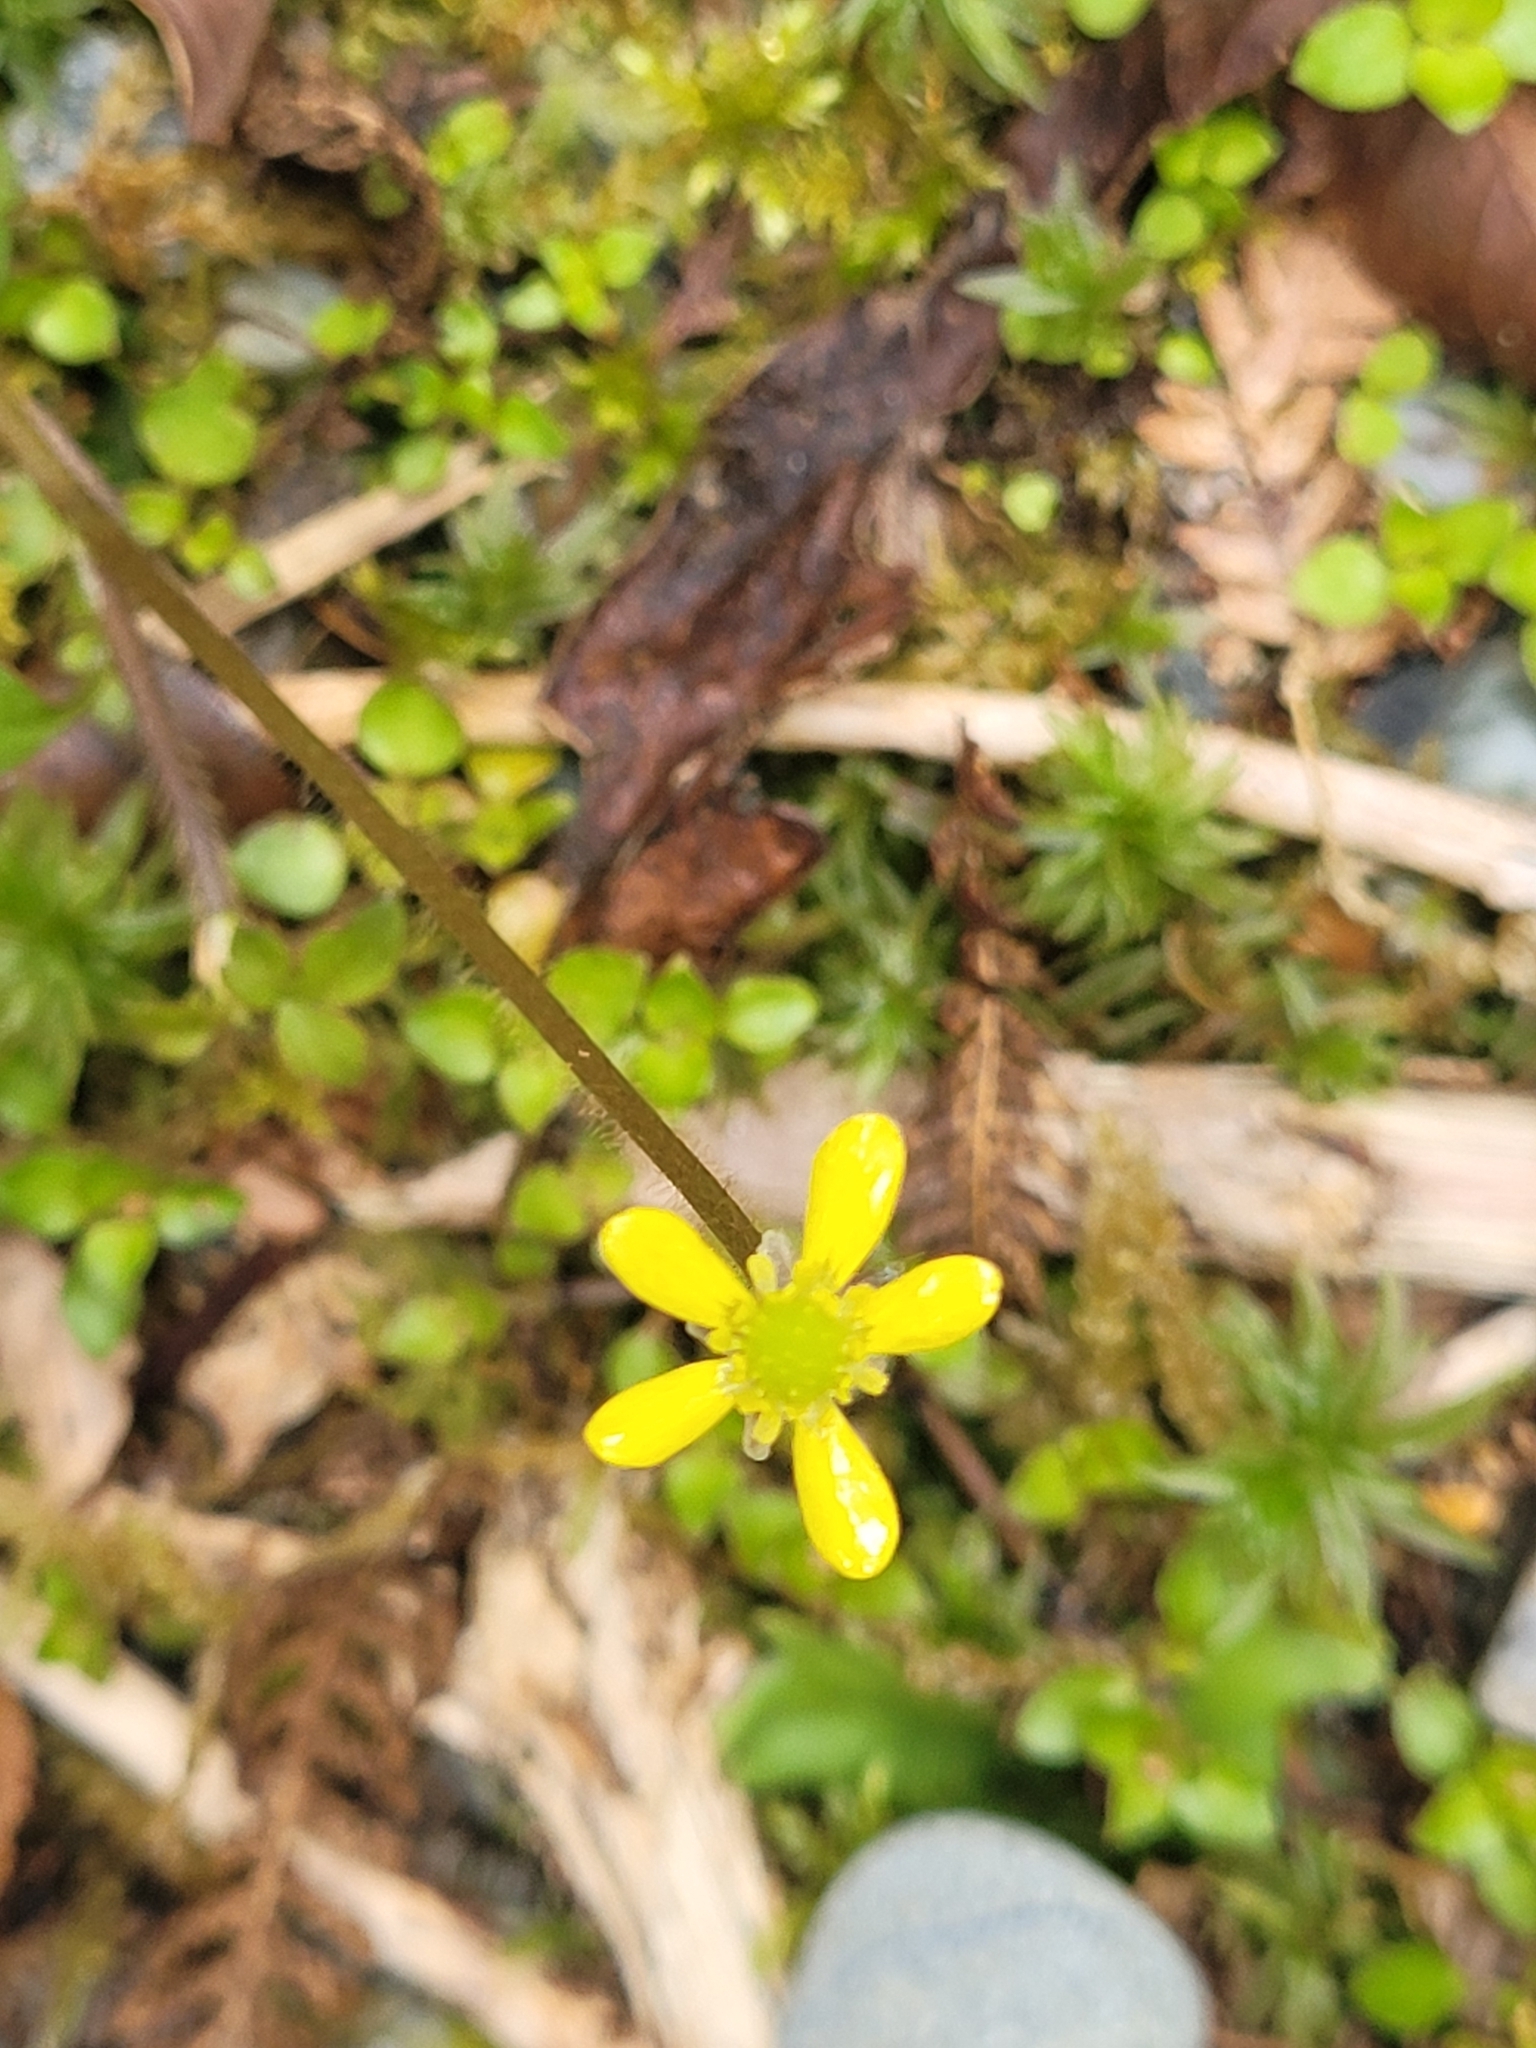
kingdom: Plantae
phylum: Tracheophyta
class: Magnoliopsida
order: Ranunculales
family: Ranunculaceae
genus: Ranunculus
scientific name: Ranunculus reflexus
